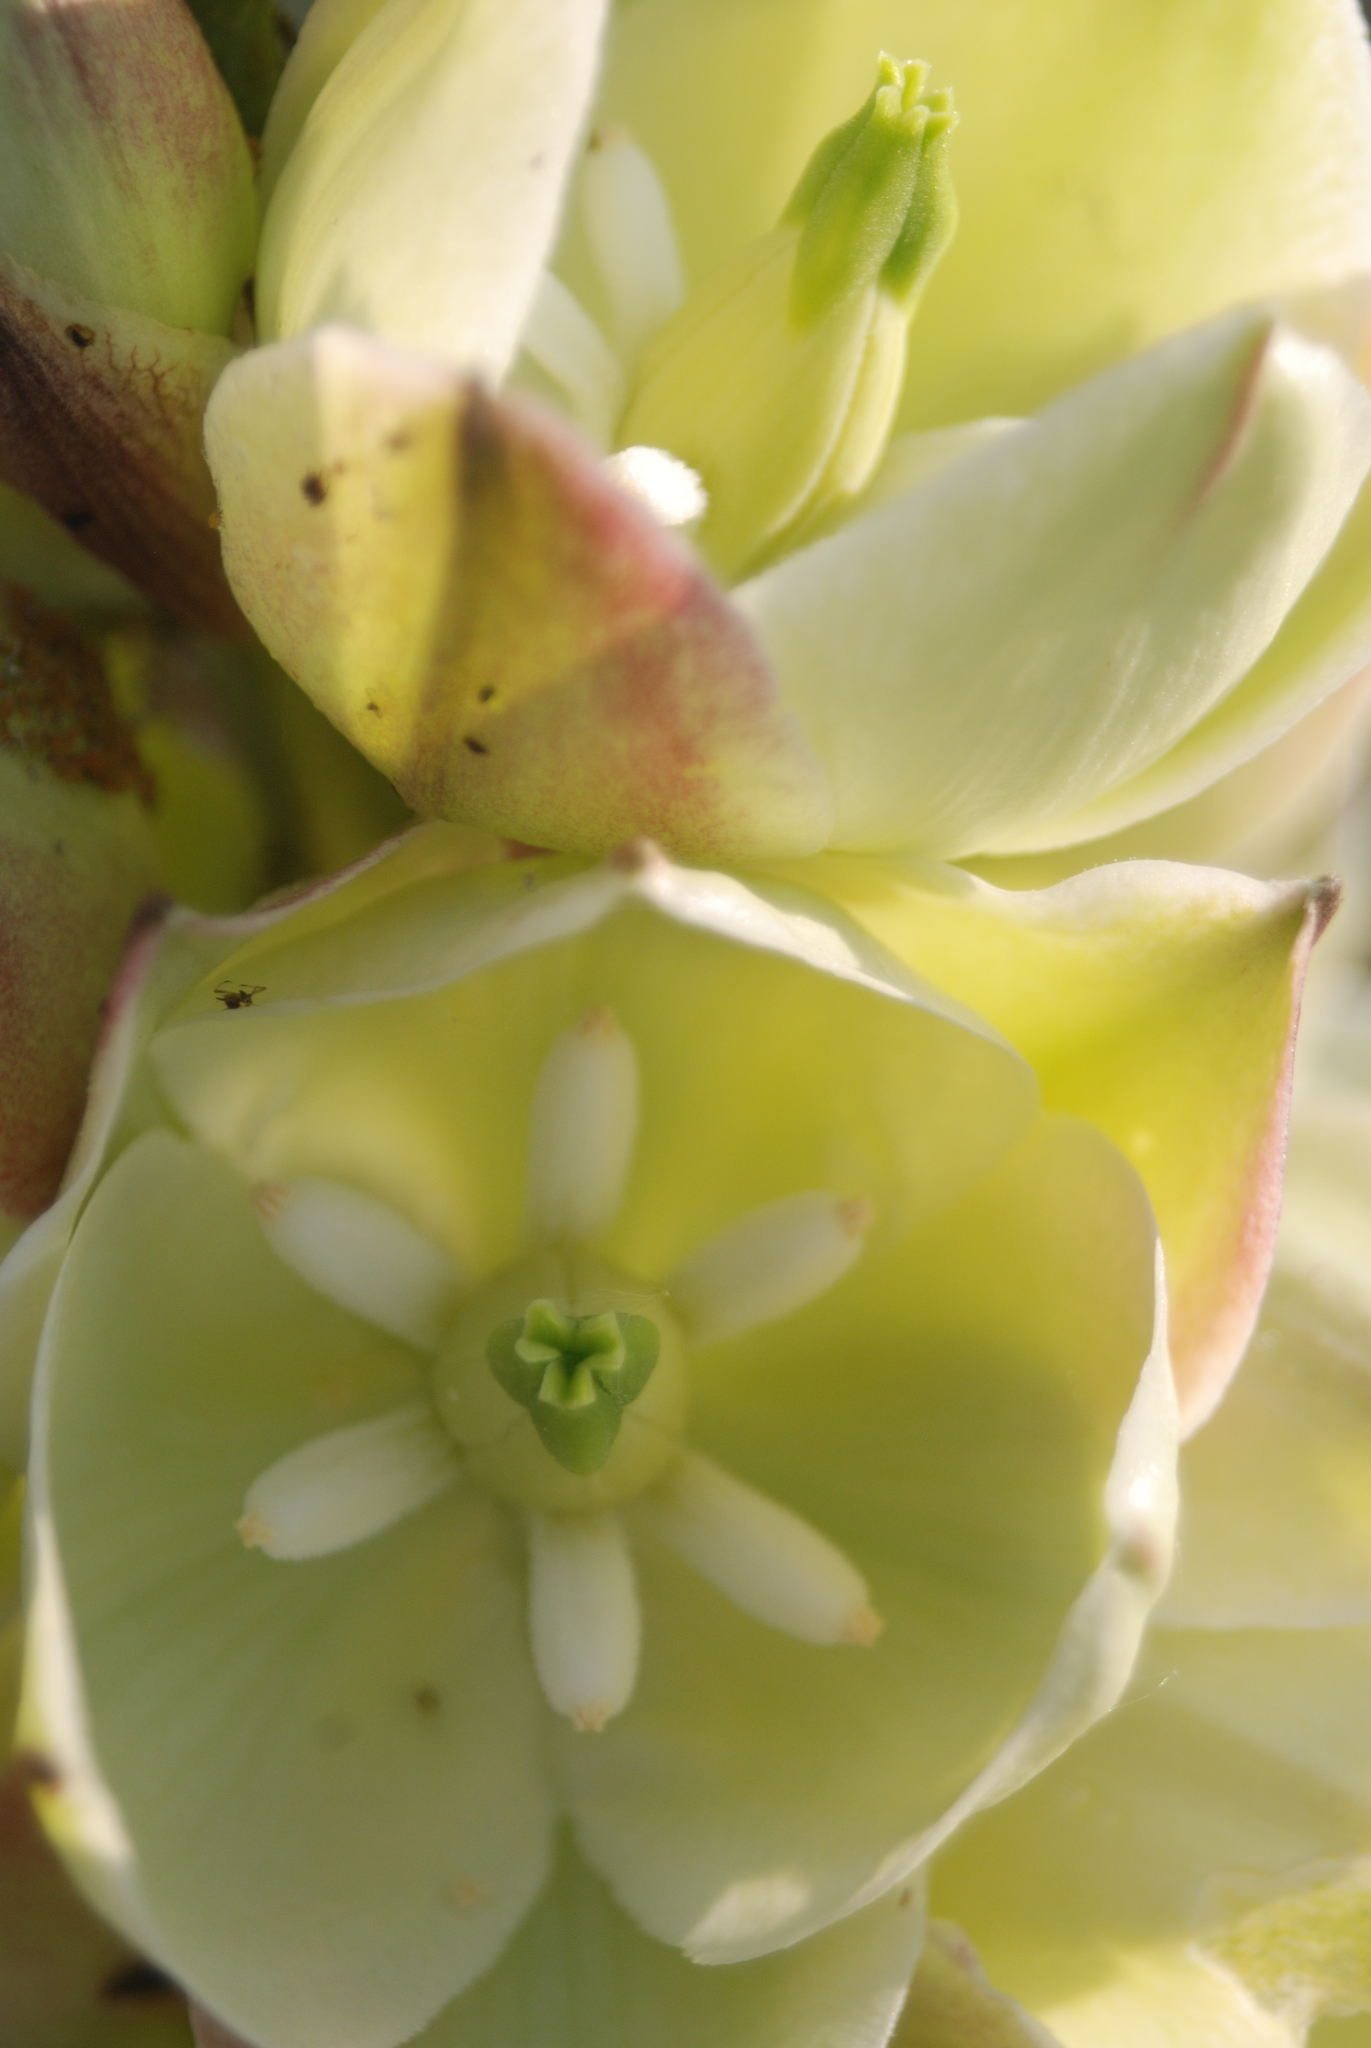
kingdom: Plantae
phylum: Tracheophyta
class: Liliopsida
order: Asparagales
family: Asparagaceae
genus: Yucca
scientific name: Yucca glauca
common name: Great plains yucca
